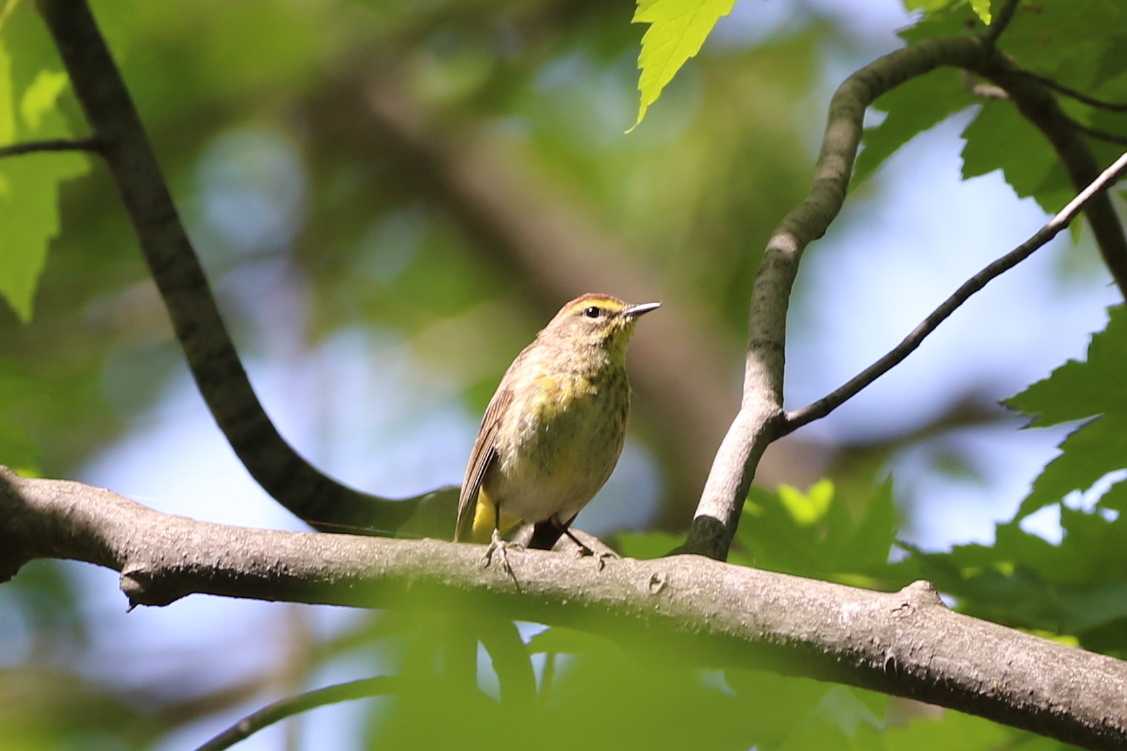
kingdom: Animalia
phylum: Chordata
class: Aves
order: Passeriformes
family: Parulidae
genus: Setophaga
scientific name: Setophaga palmarum
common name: Palm warbler
